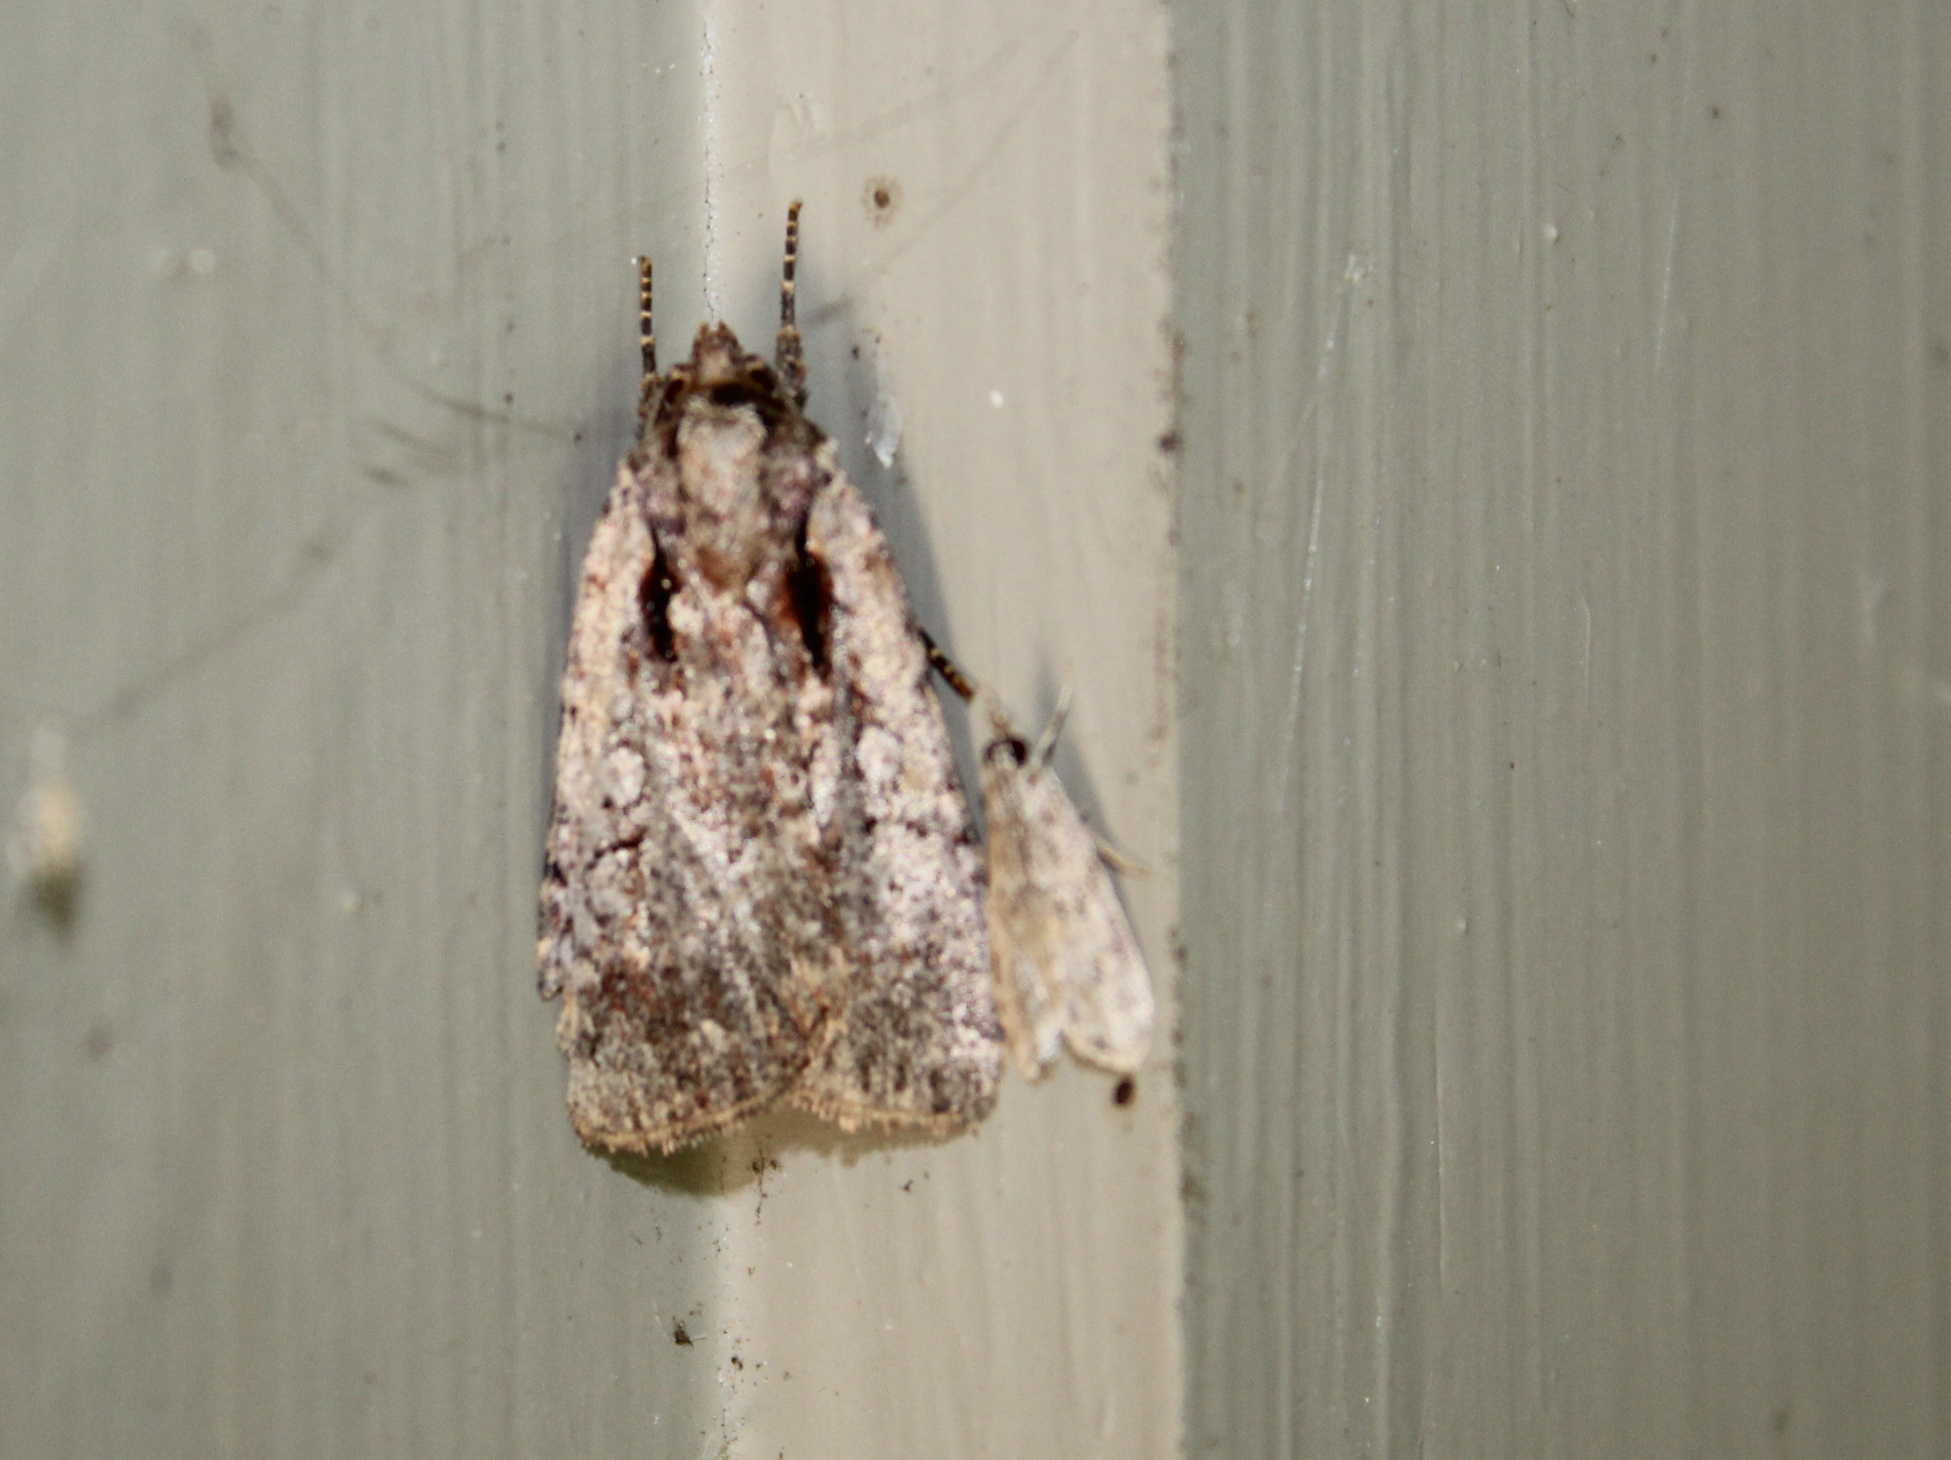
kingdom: Animalia
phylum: Arthropoda
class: Insecta
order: Lepidoptera
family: Noctuidae
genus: Eueretagrotis
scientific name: Eueretagrotis attentus
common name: Attentive dart
